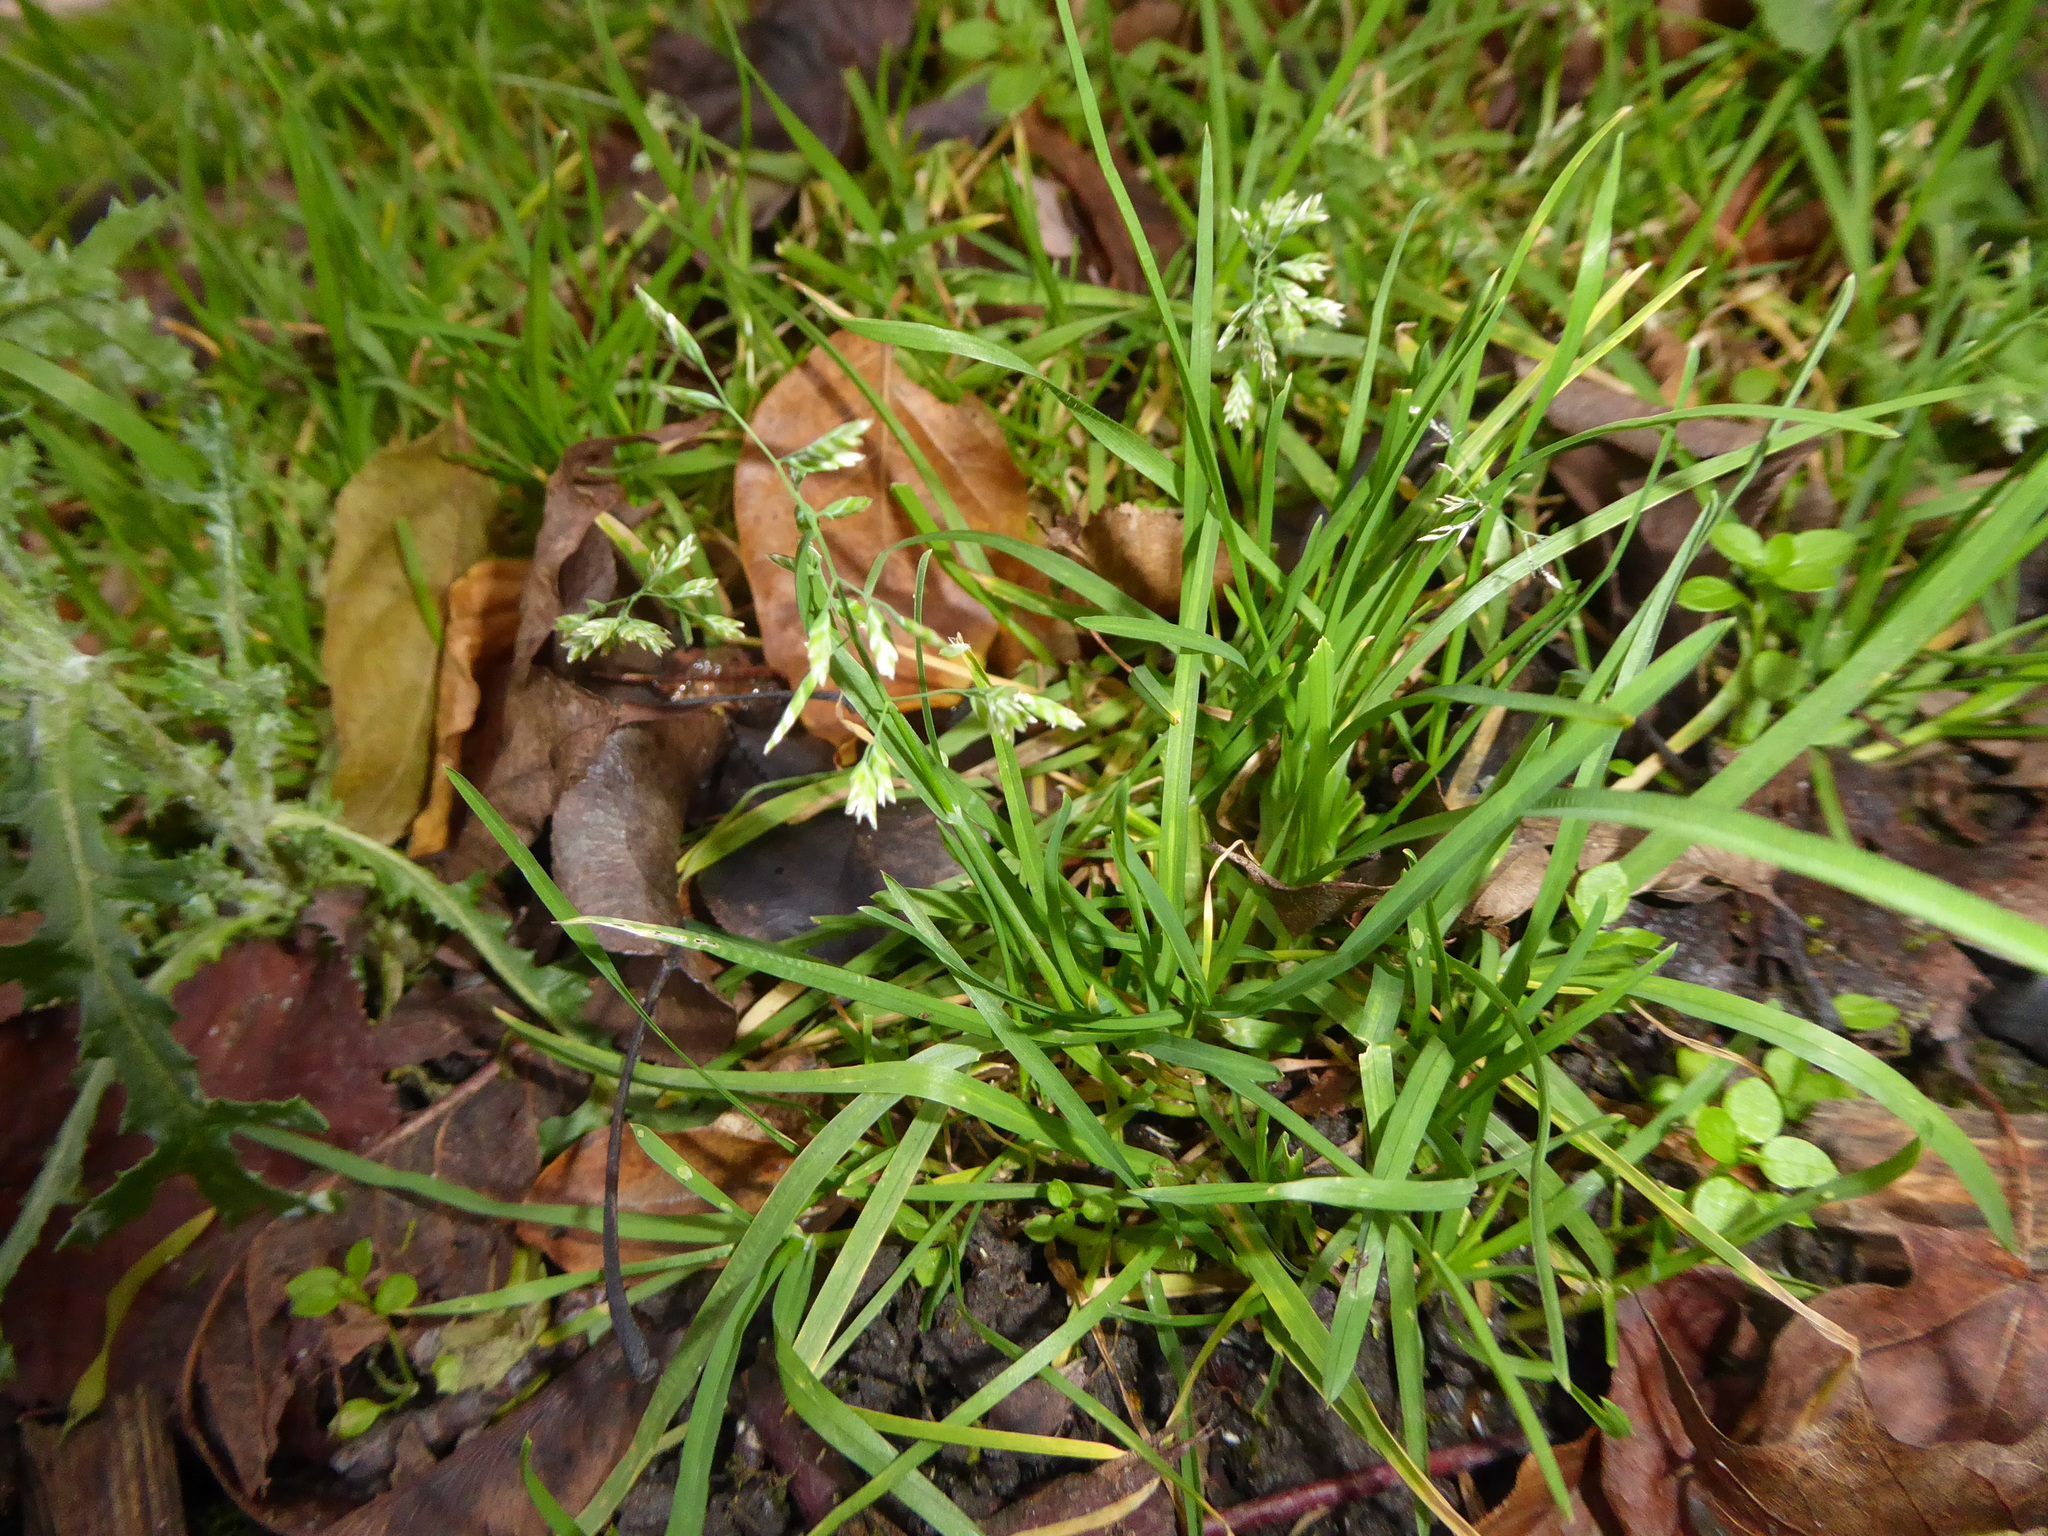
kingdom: Plantae
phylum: Tracheophyta
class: Liliopsida
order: Poales
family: Poaceae
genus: Poa
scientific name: Poa annua
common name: Annual bluegrass
